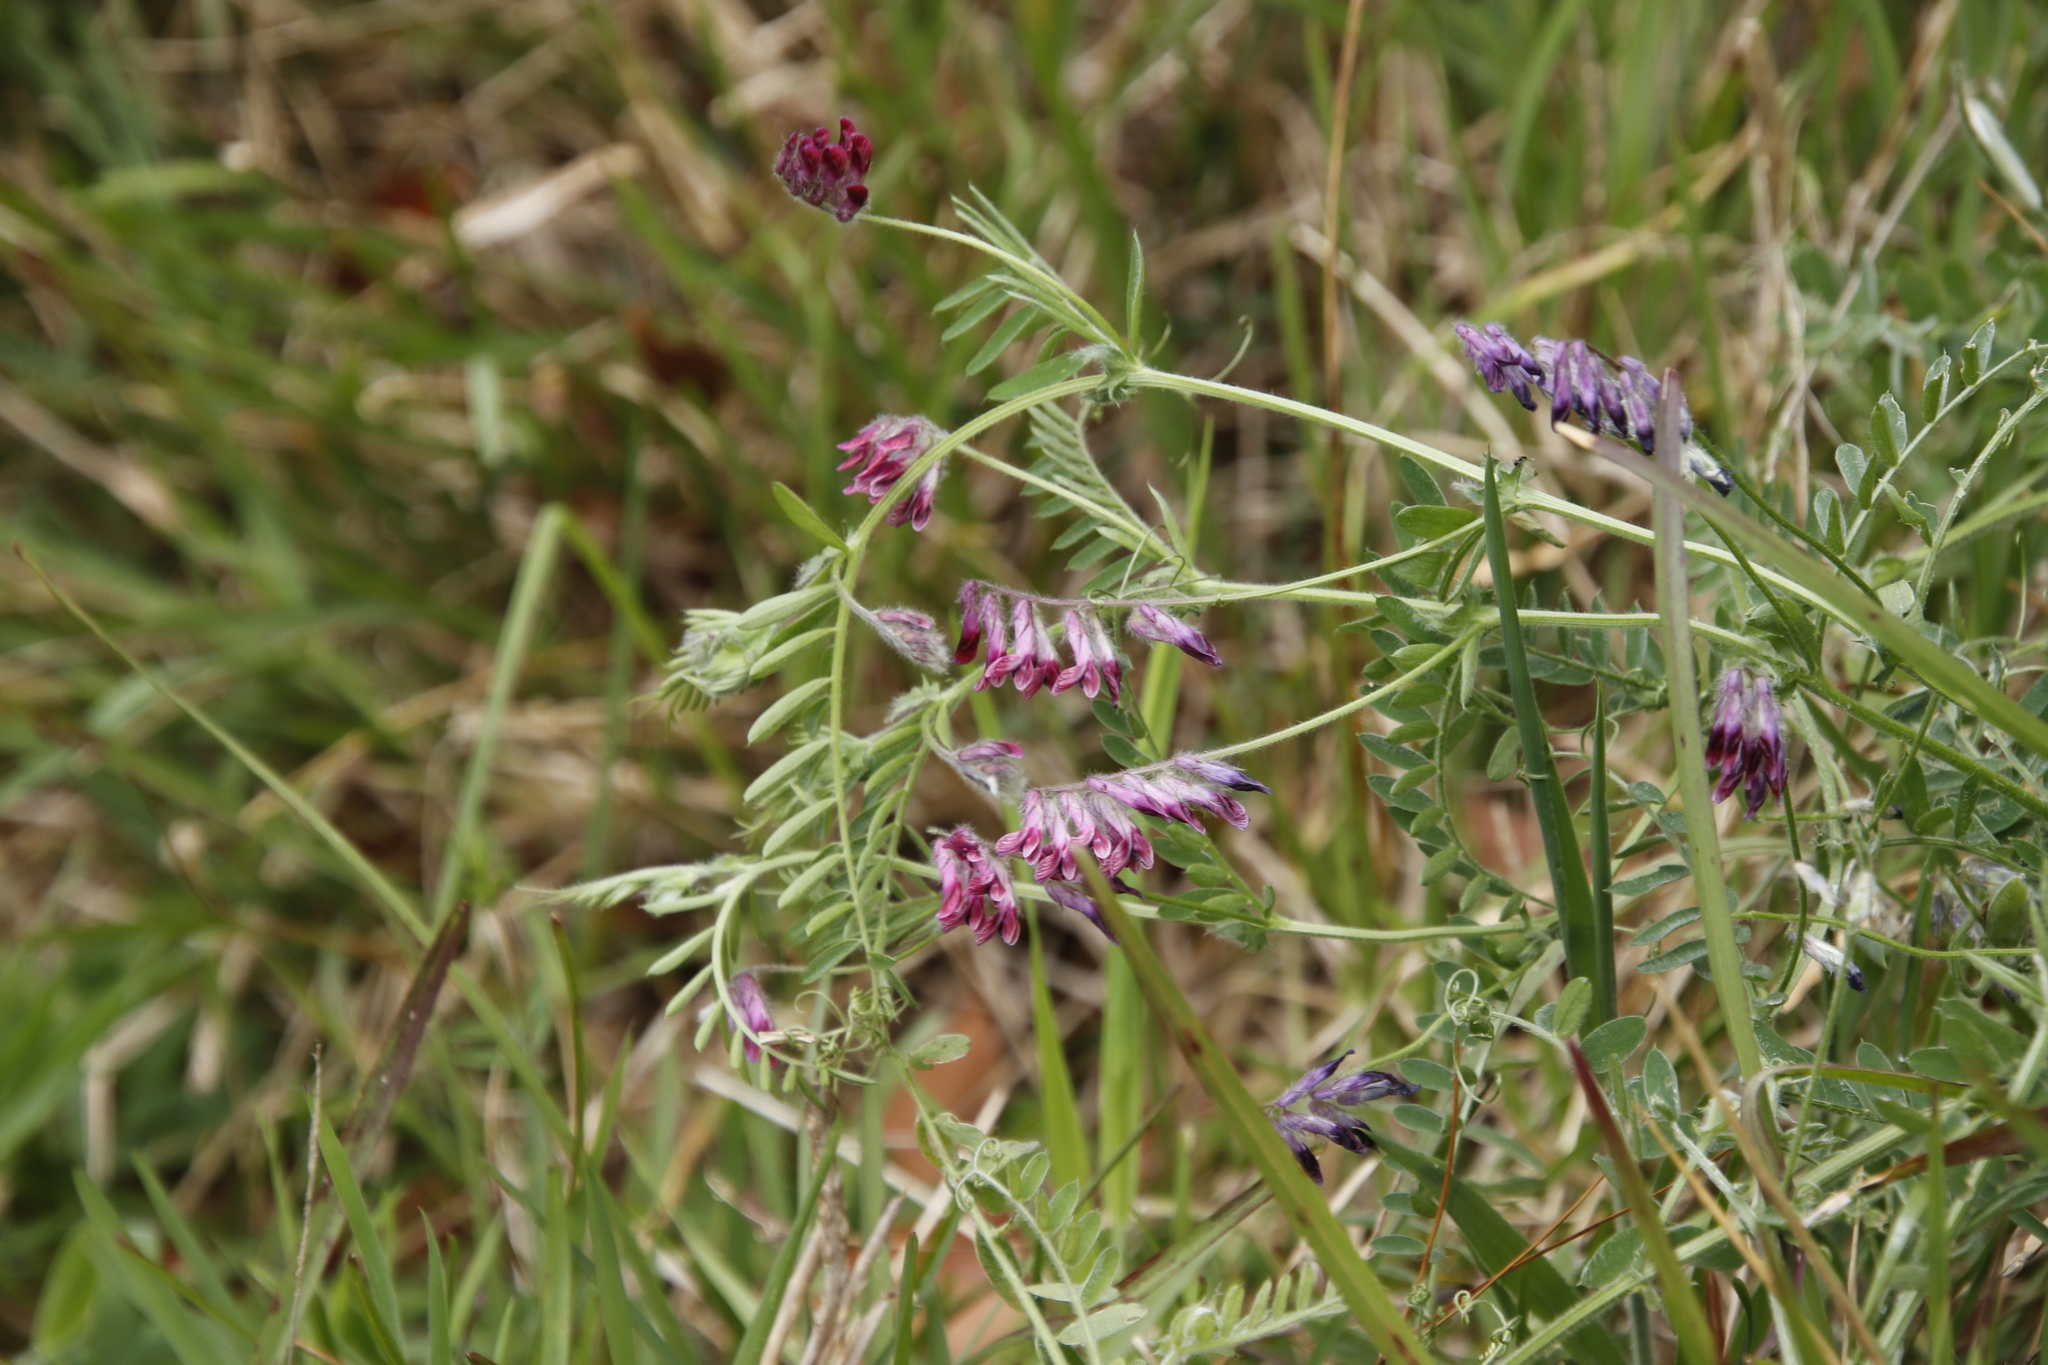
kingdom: Plantae
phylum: Tracheophyta
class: Magnoliopsida
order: Fabales
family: Fabaceae
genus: Vicia
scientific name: Vicia benghalensis
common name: Purple vetch
